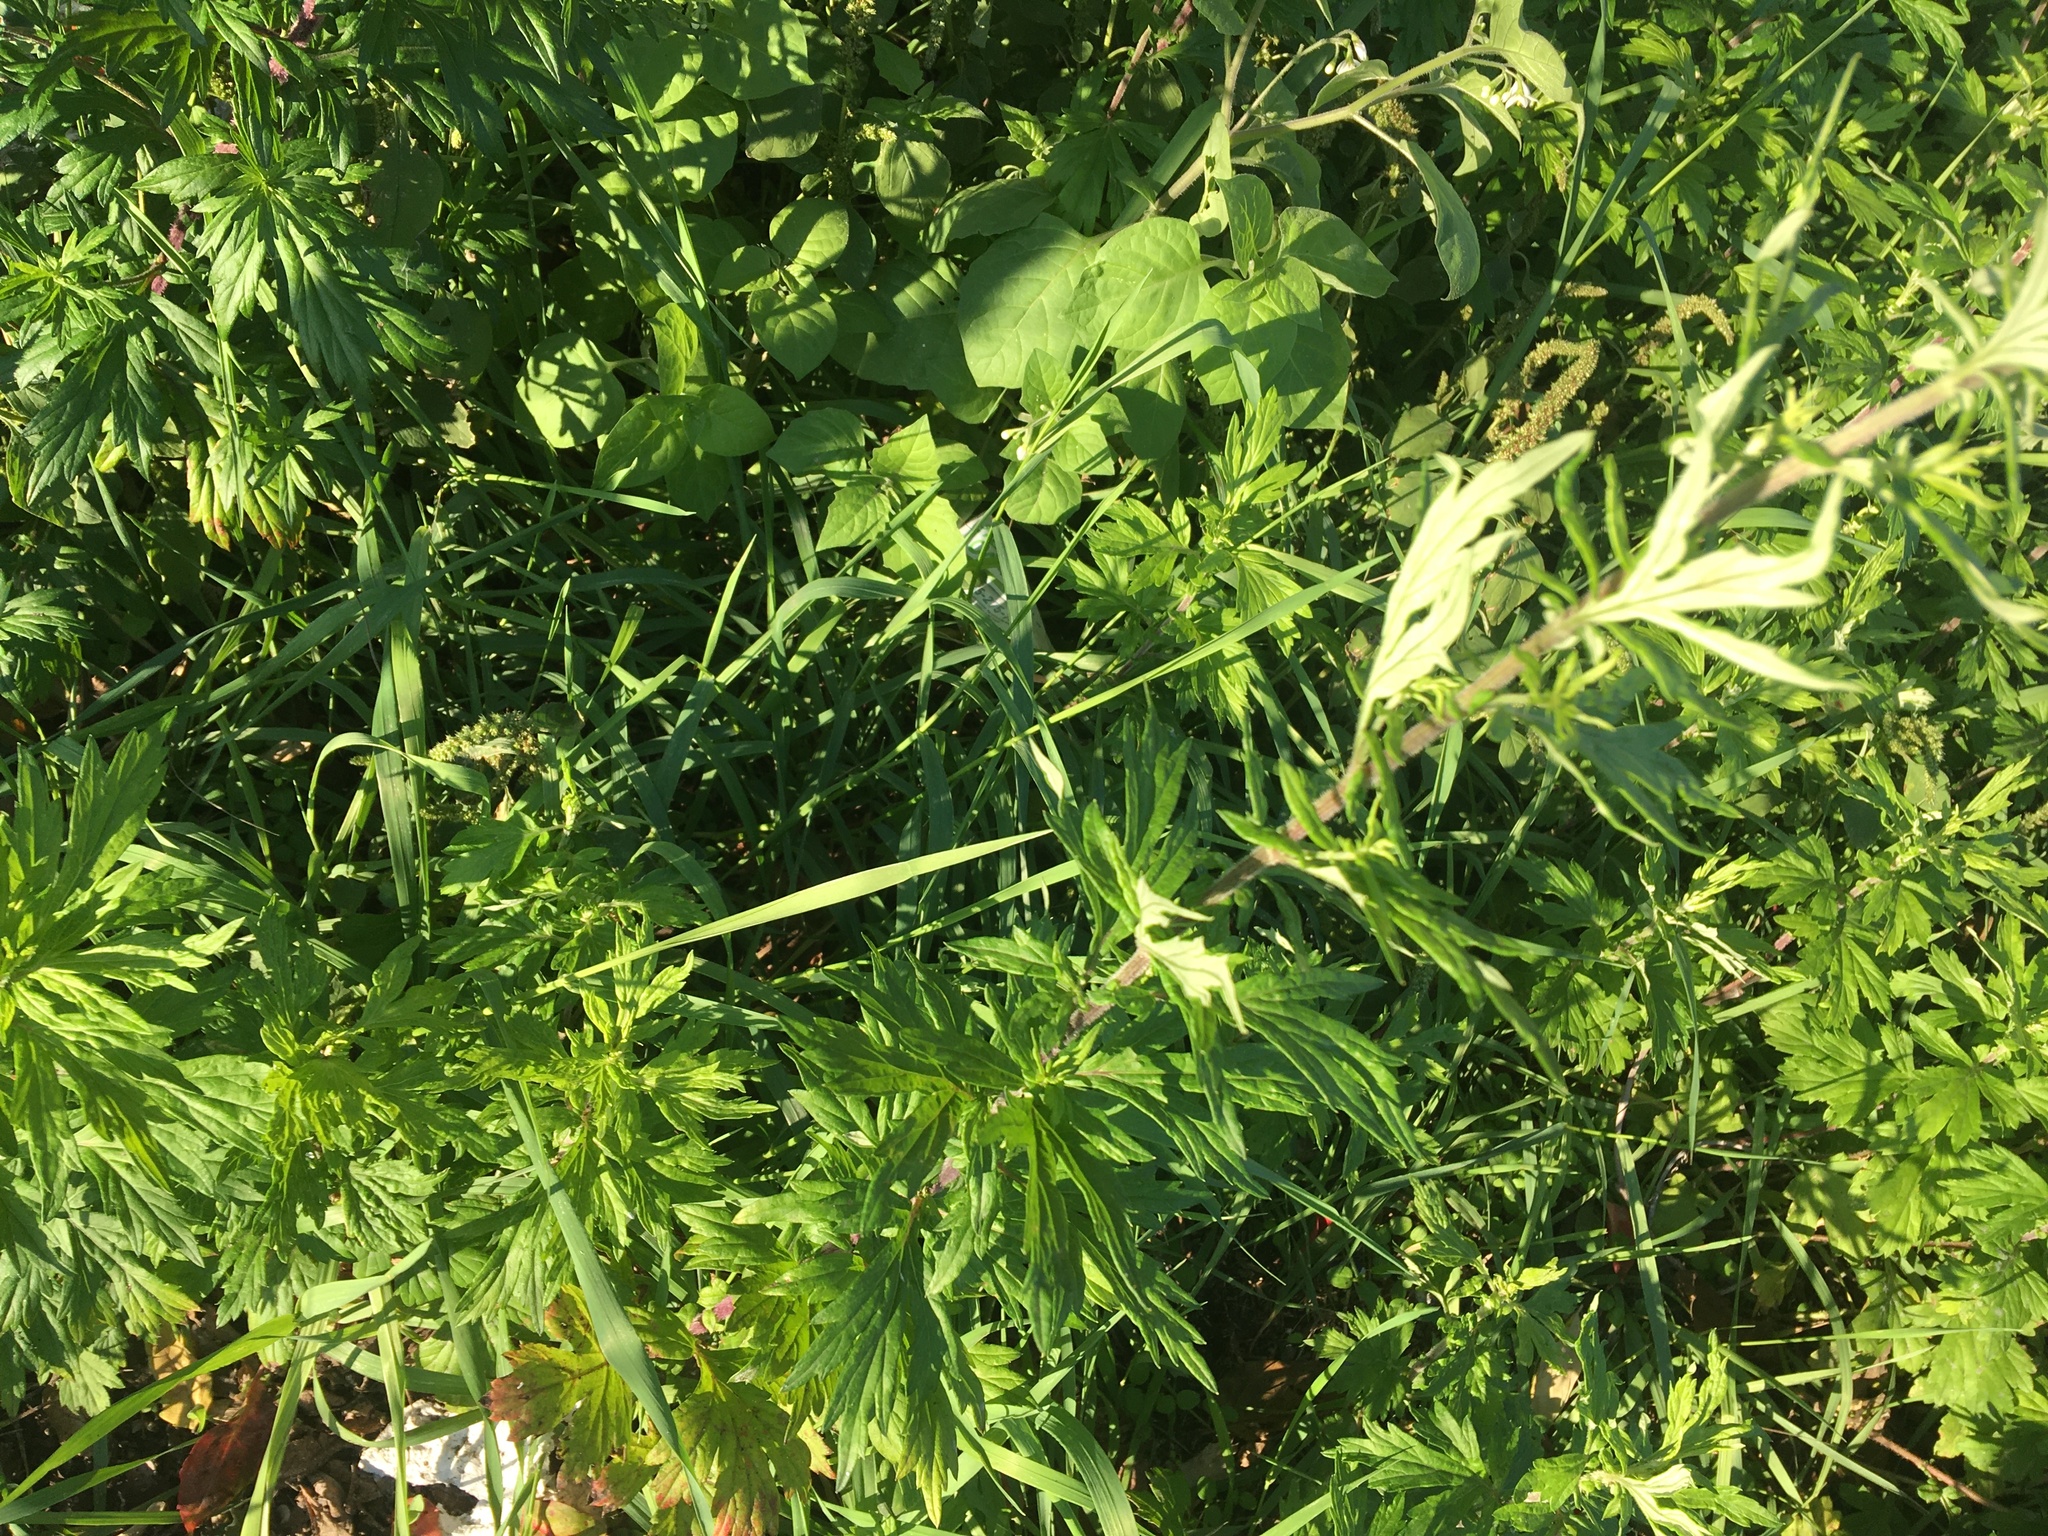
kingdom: Plantae
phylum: Tracheophyta
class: Magnoliopsida
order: Asterales
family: Asteraceae
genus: Artemisia
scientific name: Artemisia vulgaris
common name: Mugwort
